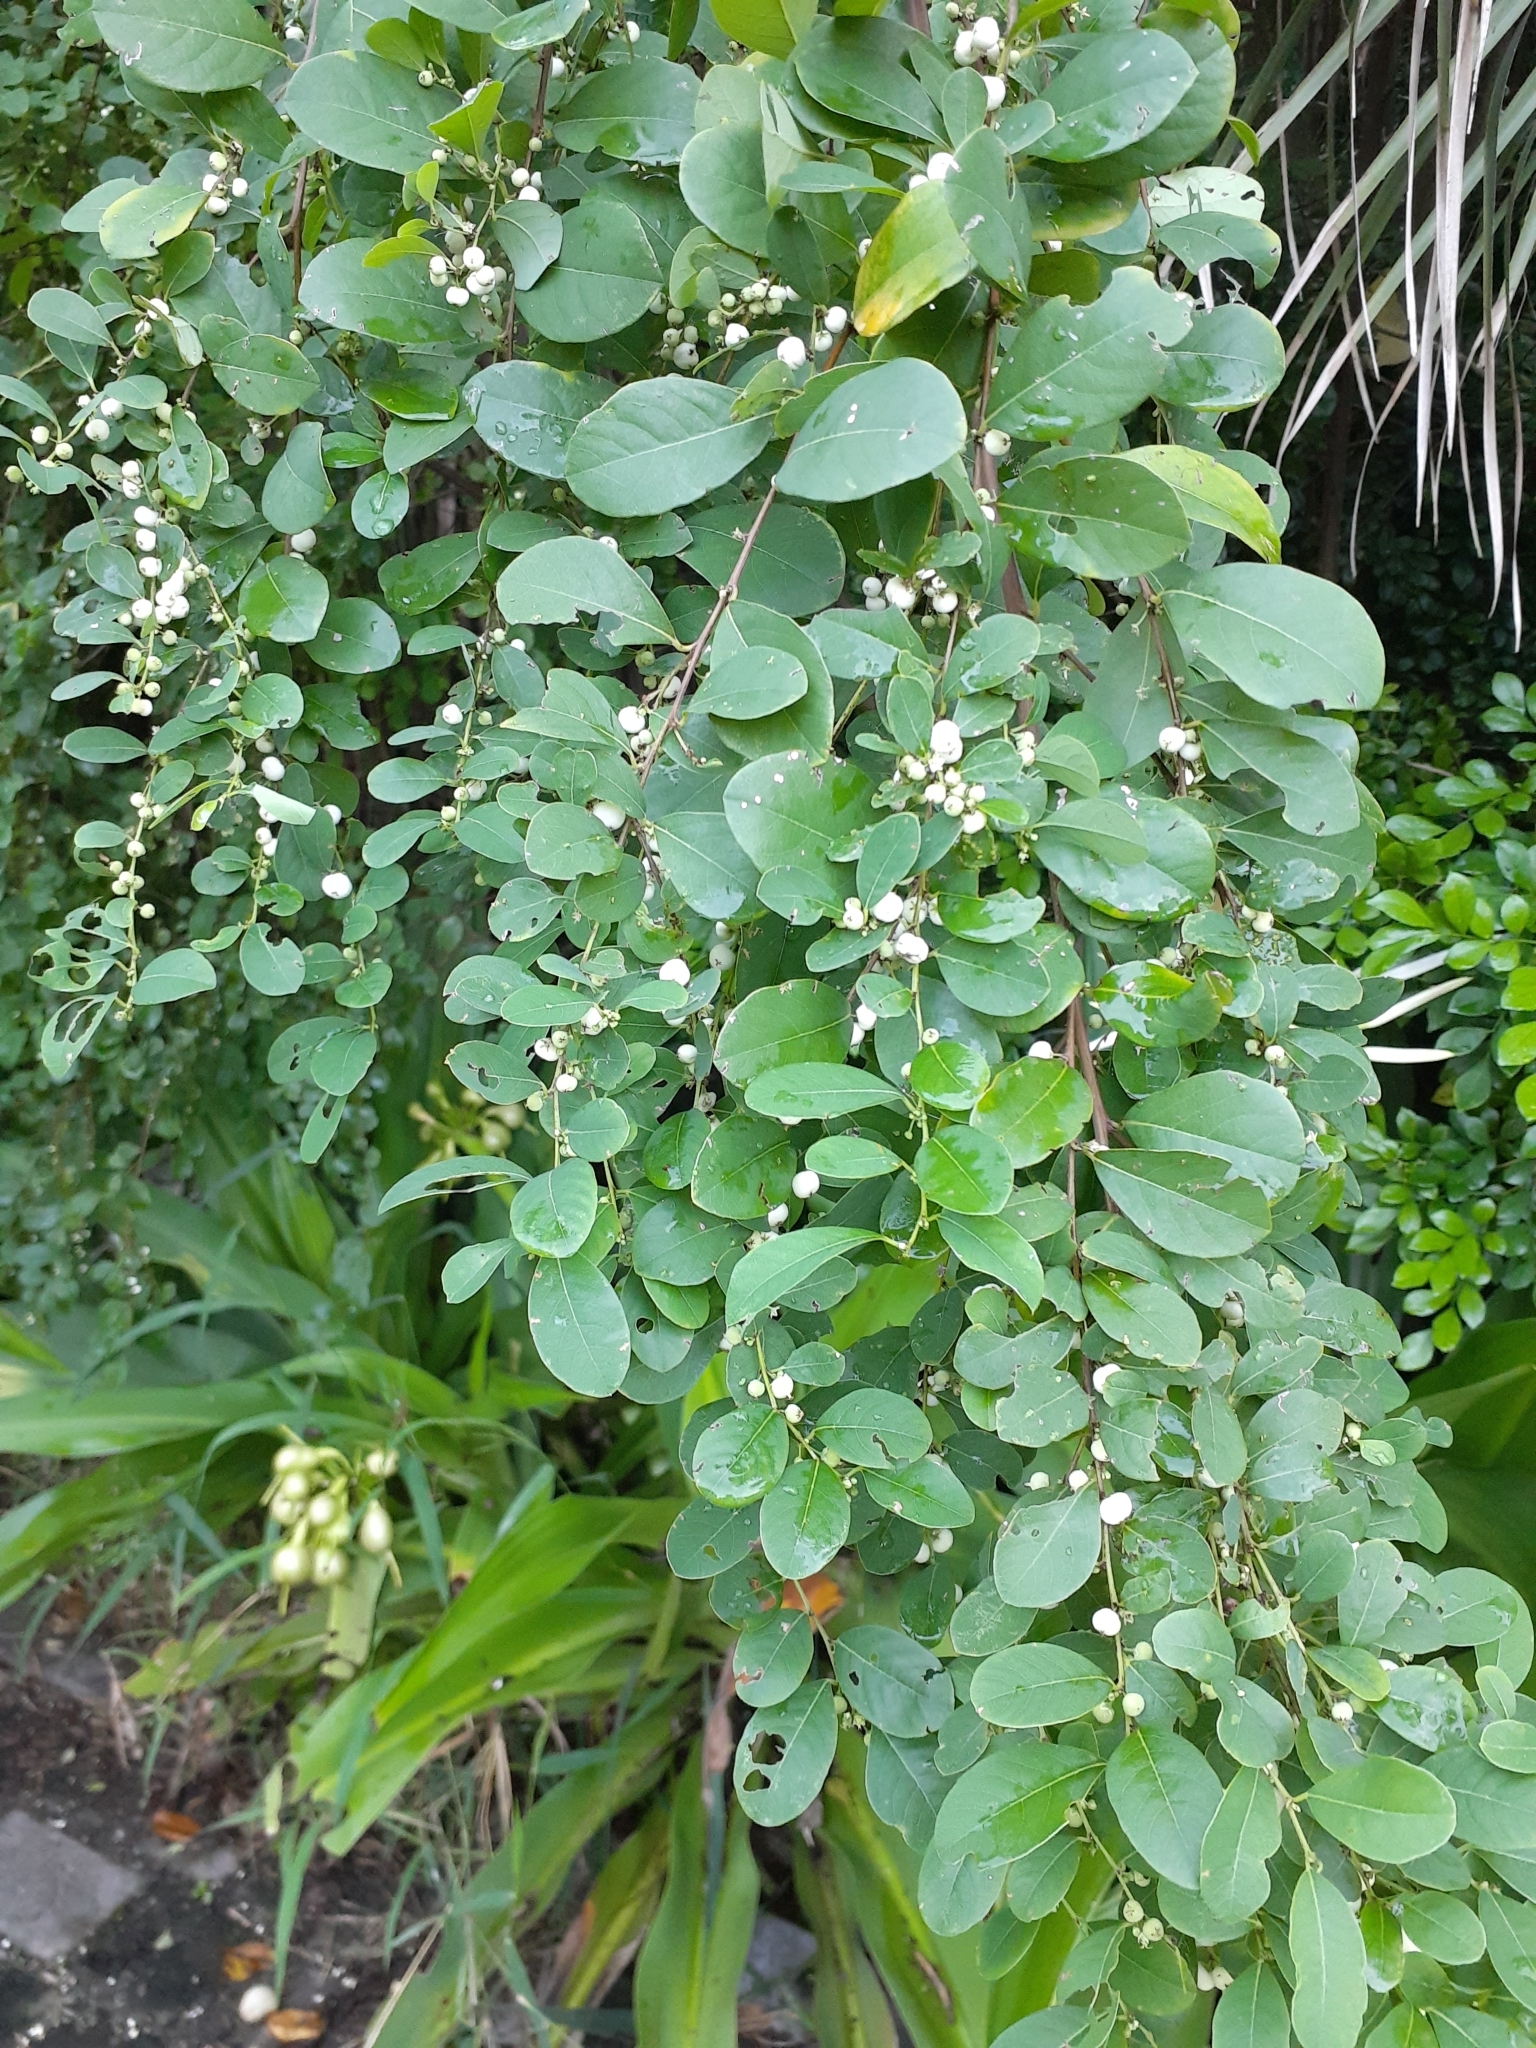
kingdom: Plantae
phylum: Tracheophyta
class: Magnoliopsida
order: Malpighiales
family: Phyllanthaceae
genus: Flueggea
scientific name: Flueggea virosa
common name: Common bushweed
